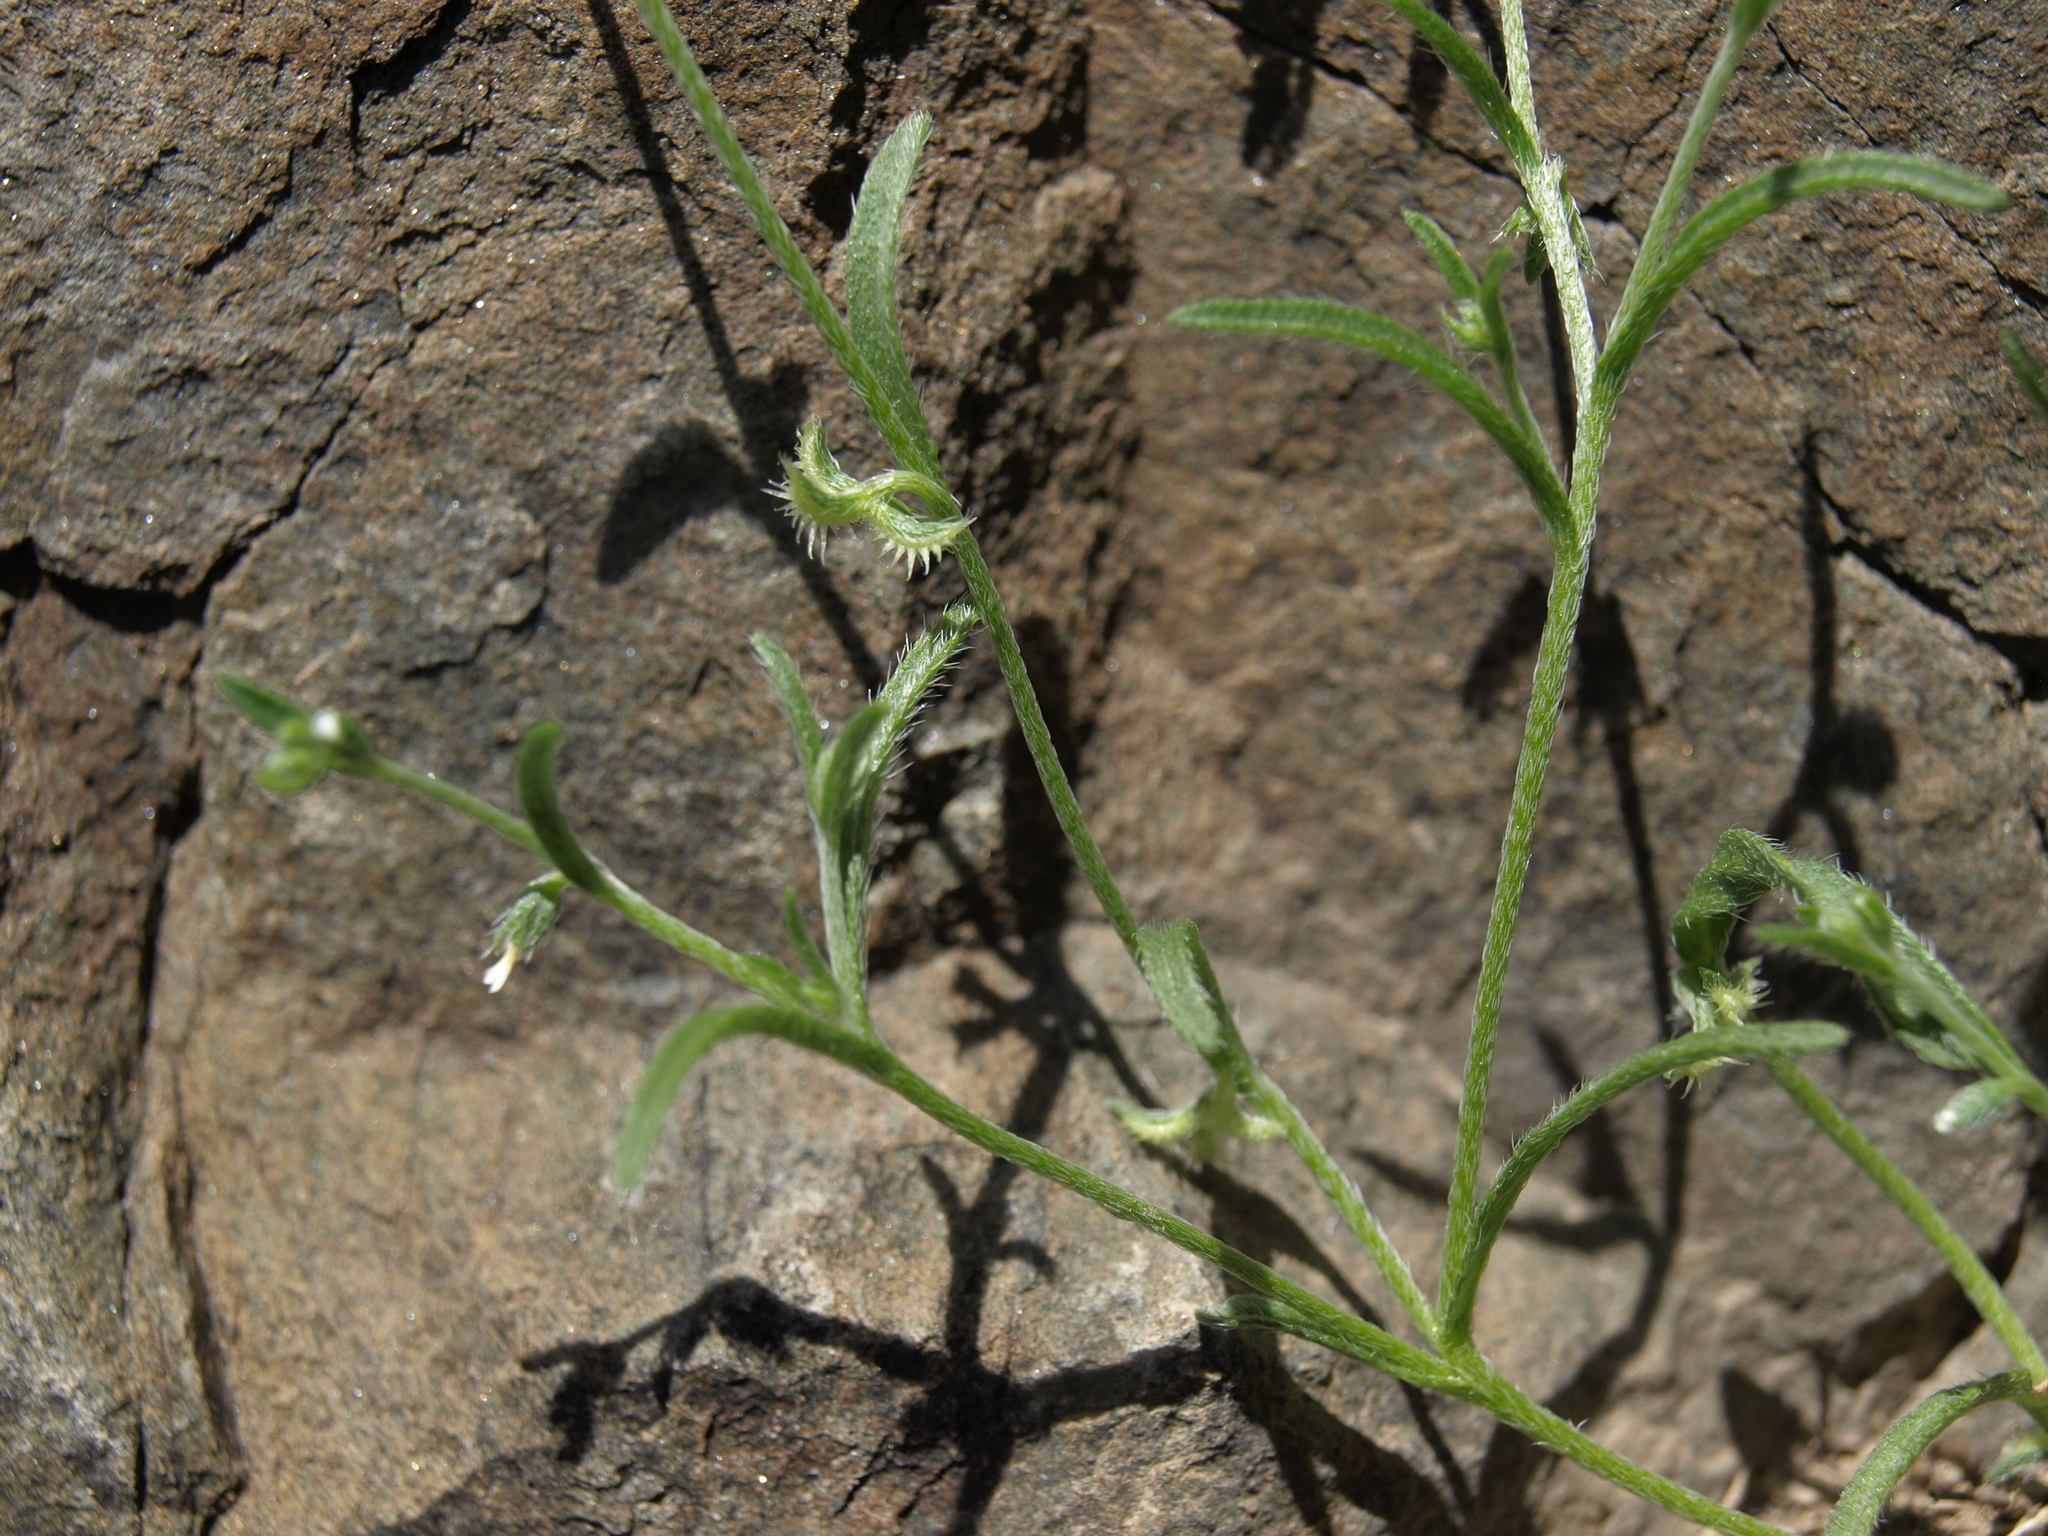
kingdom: Plantae
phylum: Tracheophyta
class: Magnoliopsida
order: Boraginales
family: Boraginaceae
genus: Pectocarya
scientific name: Pectocarya recurvata
